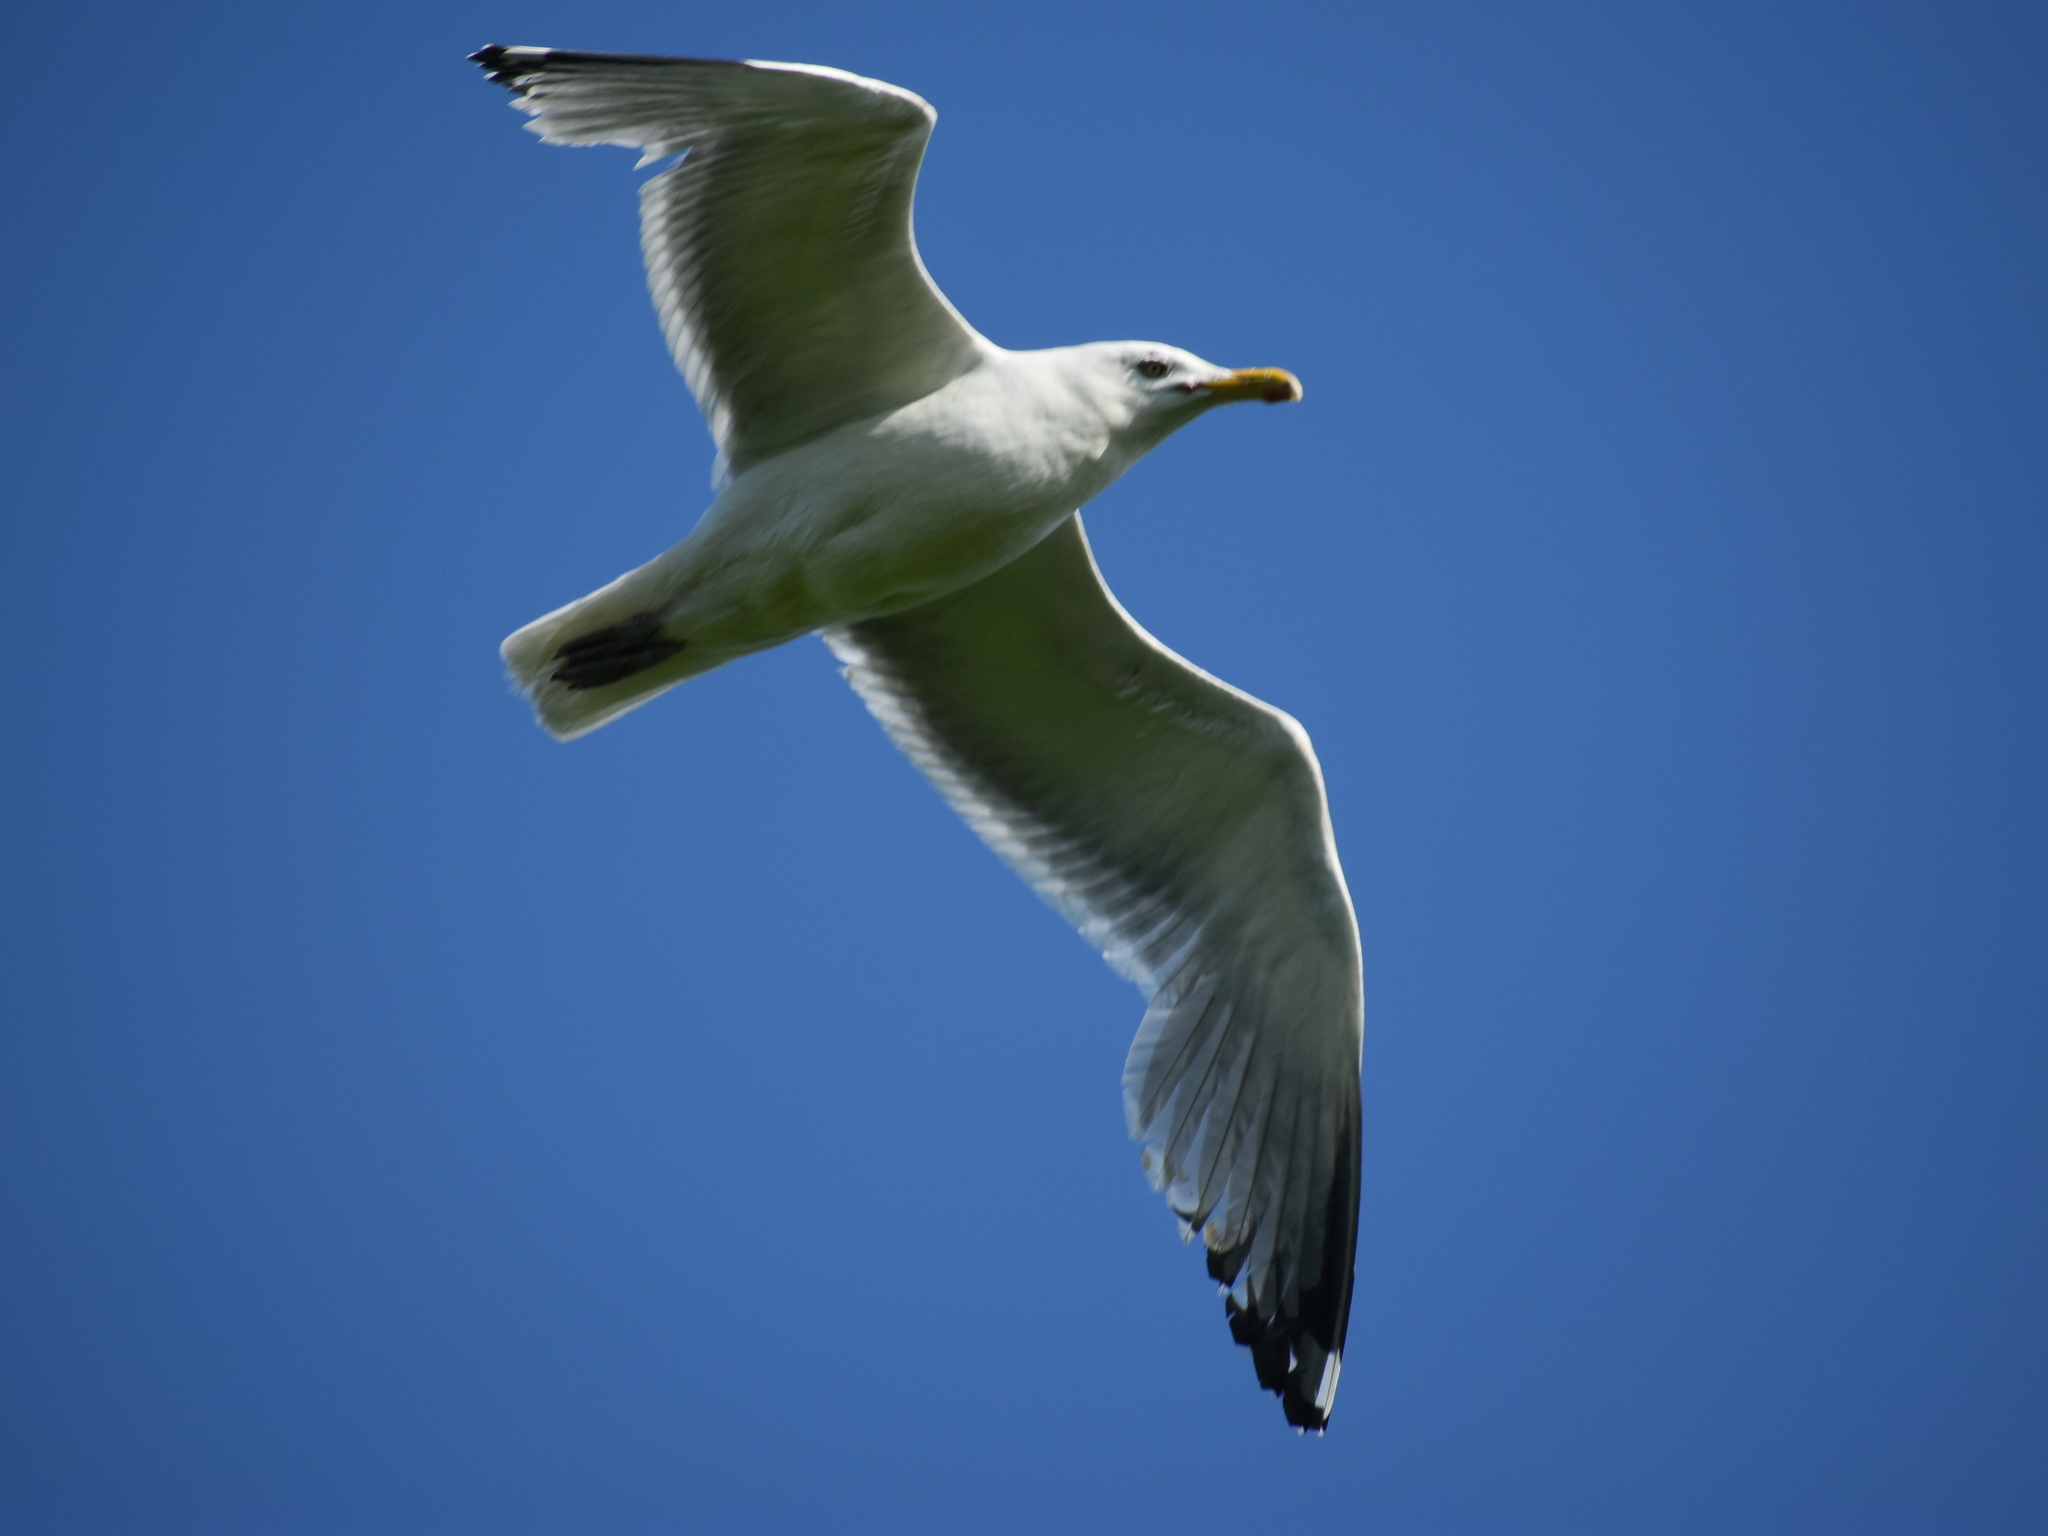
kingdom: Animalia
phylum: Chordata
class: Aves
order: Charadriiformes
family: Laridae
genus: Larus
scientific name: Larus argentatus
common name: Herring gull
